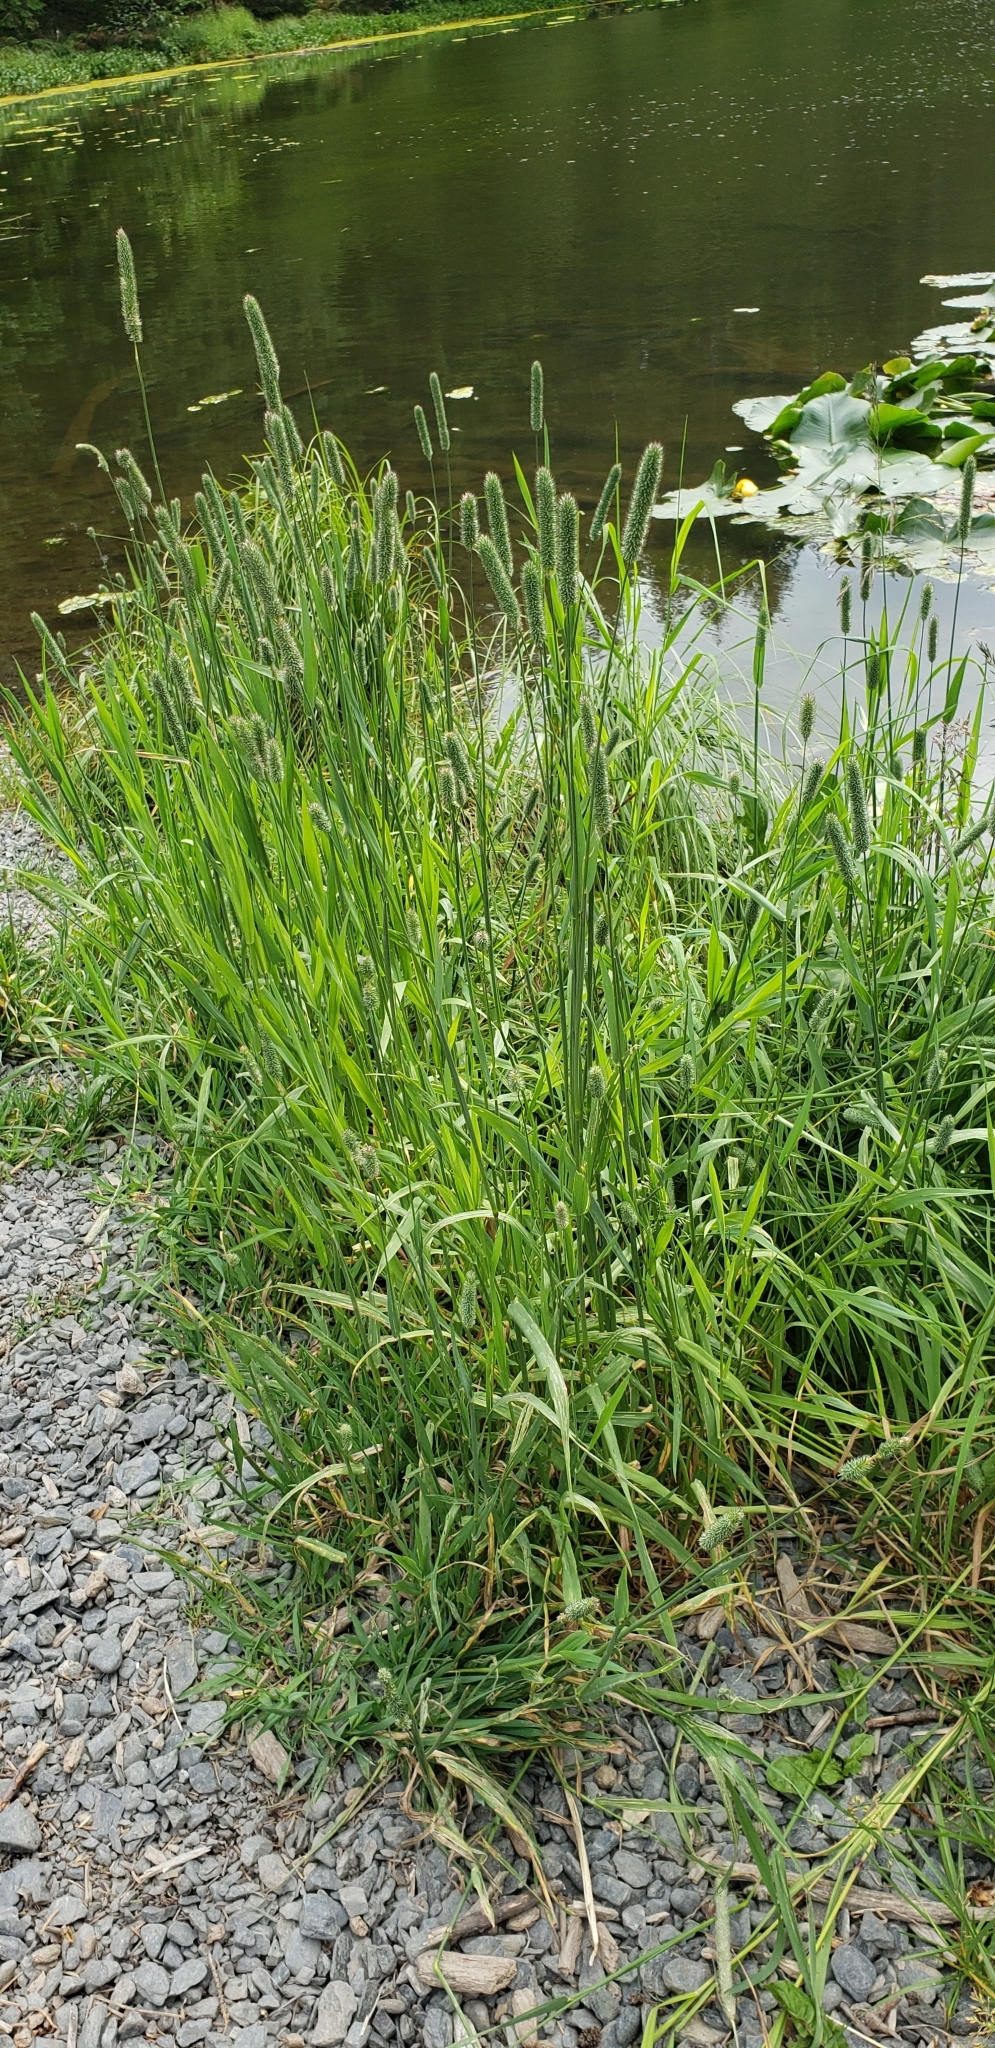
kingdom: Plantae
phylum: Tracheophyta
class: Liliopsida
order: Poales
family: Poaceae
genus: Phleum
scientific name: Phleum pratense
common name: Timothy grass
